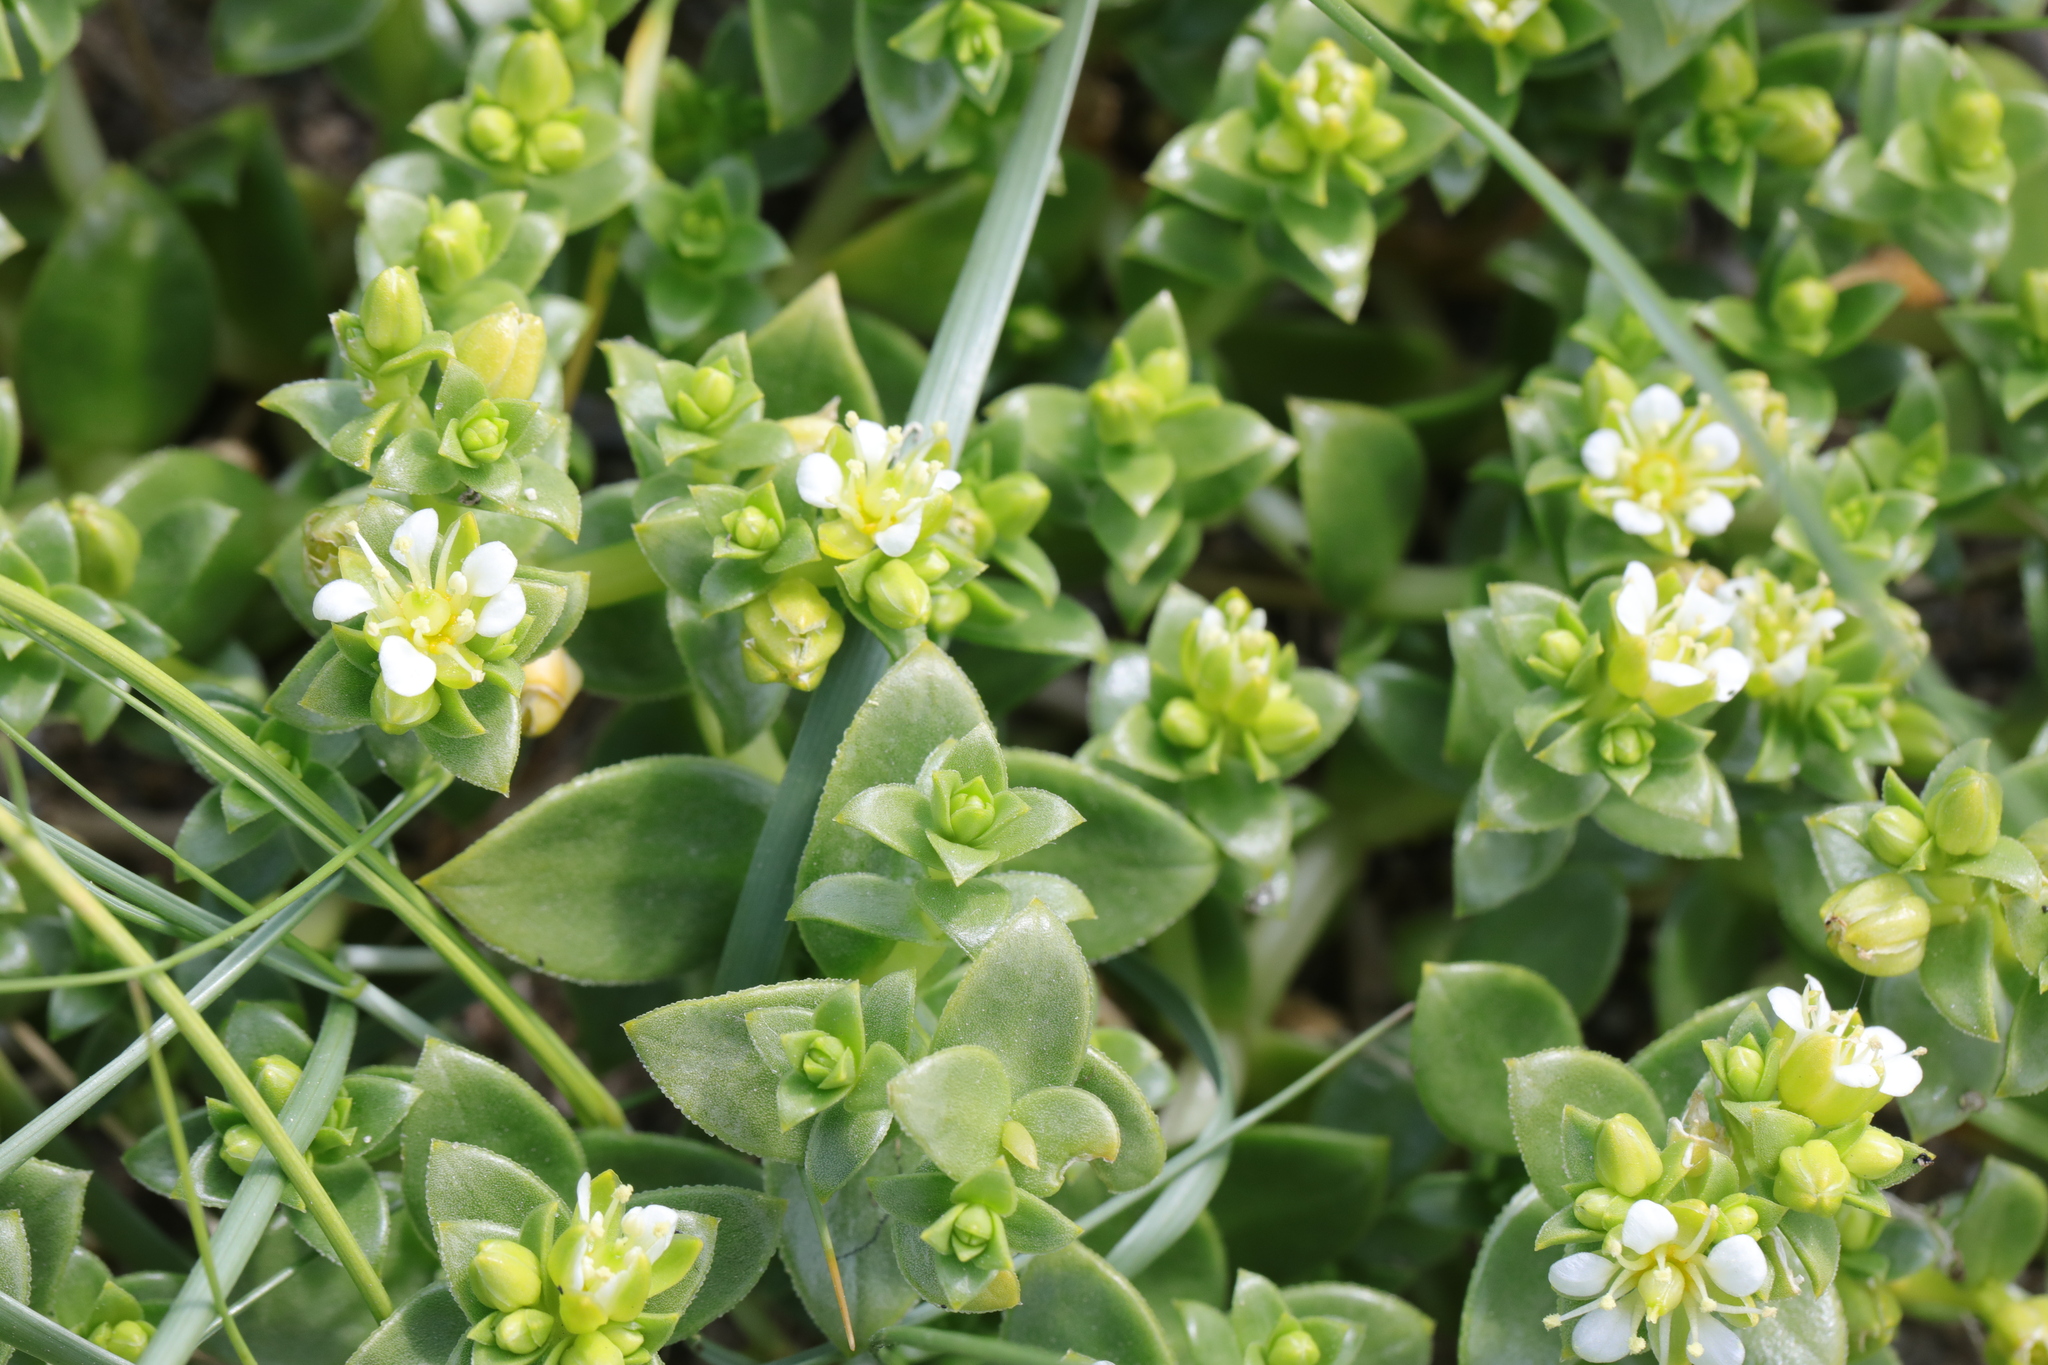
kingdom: Plantae
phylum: Tracheophyta
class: Magnoliopsida
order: Caryophyllales
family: Caryophyllaceae
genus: Honckenya
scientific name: Honckenya peploides
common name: Sea sandwort
